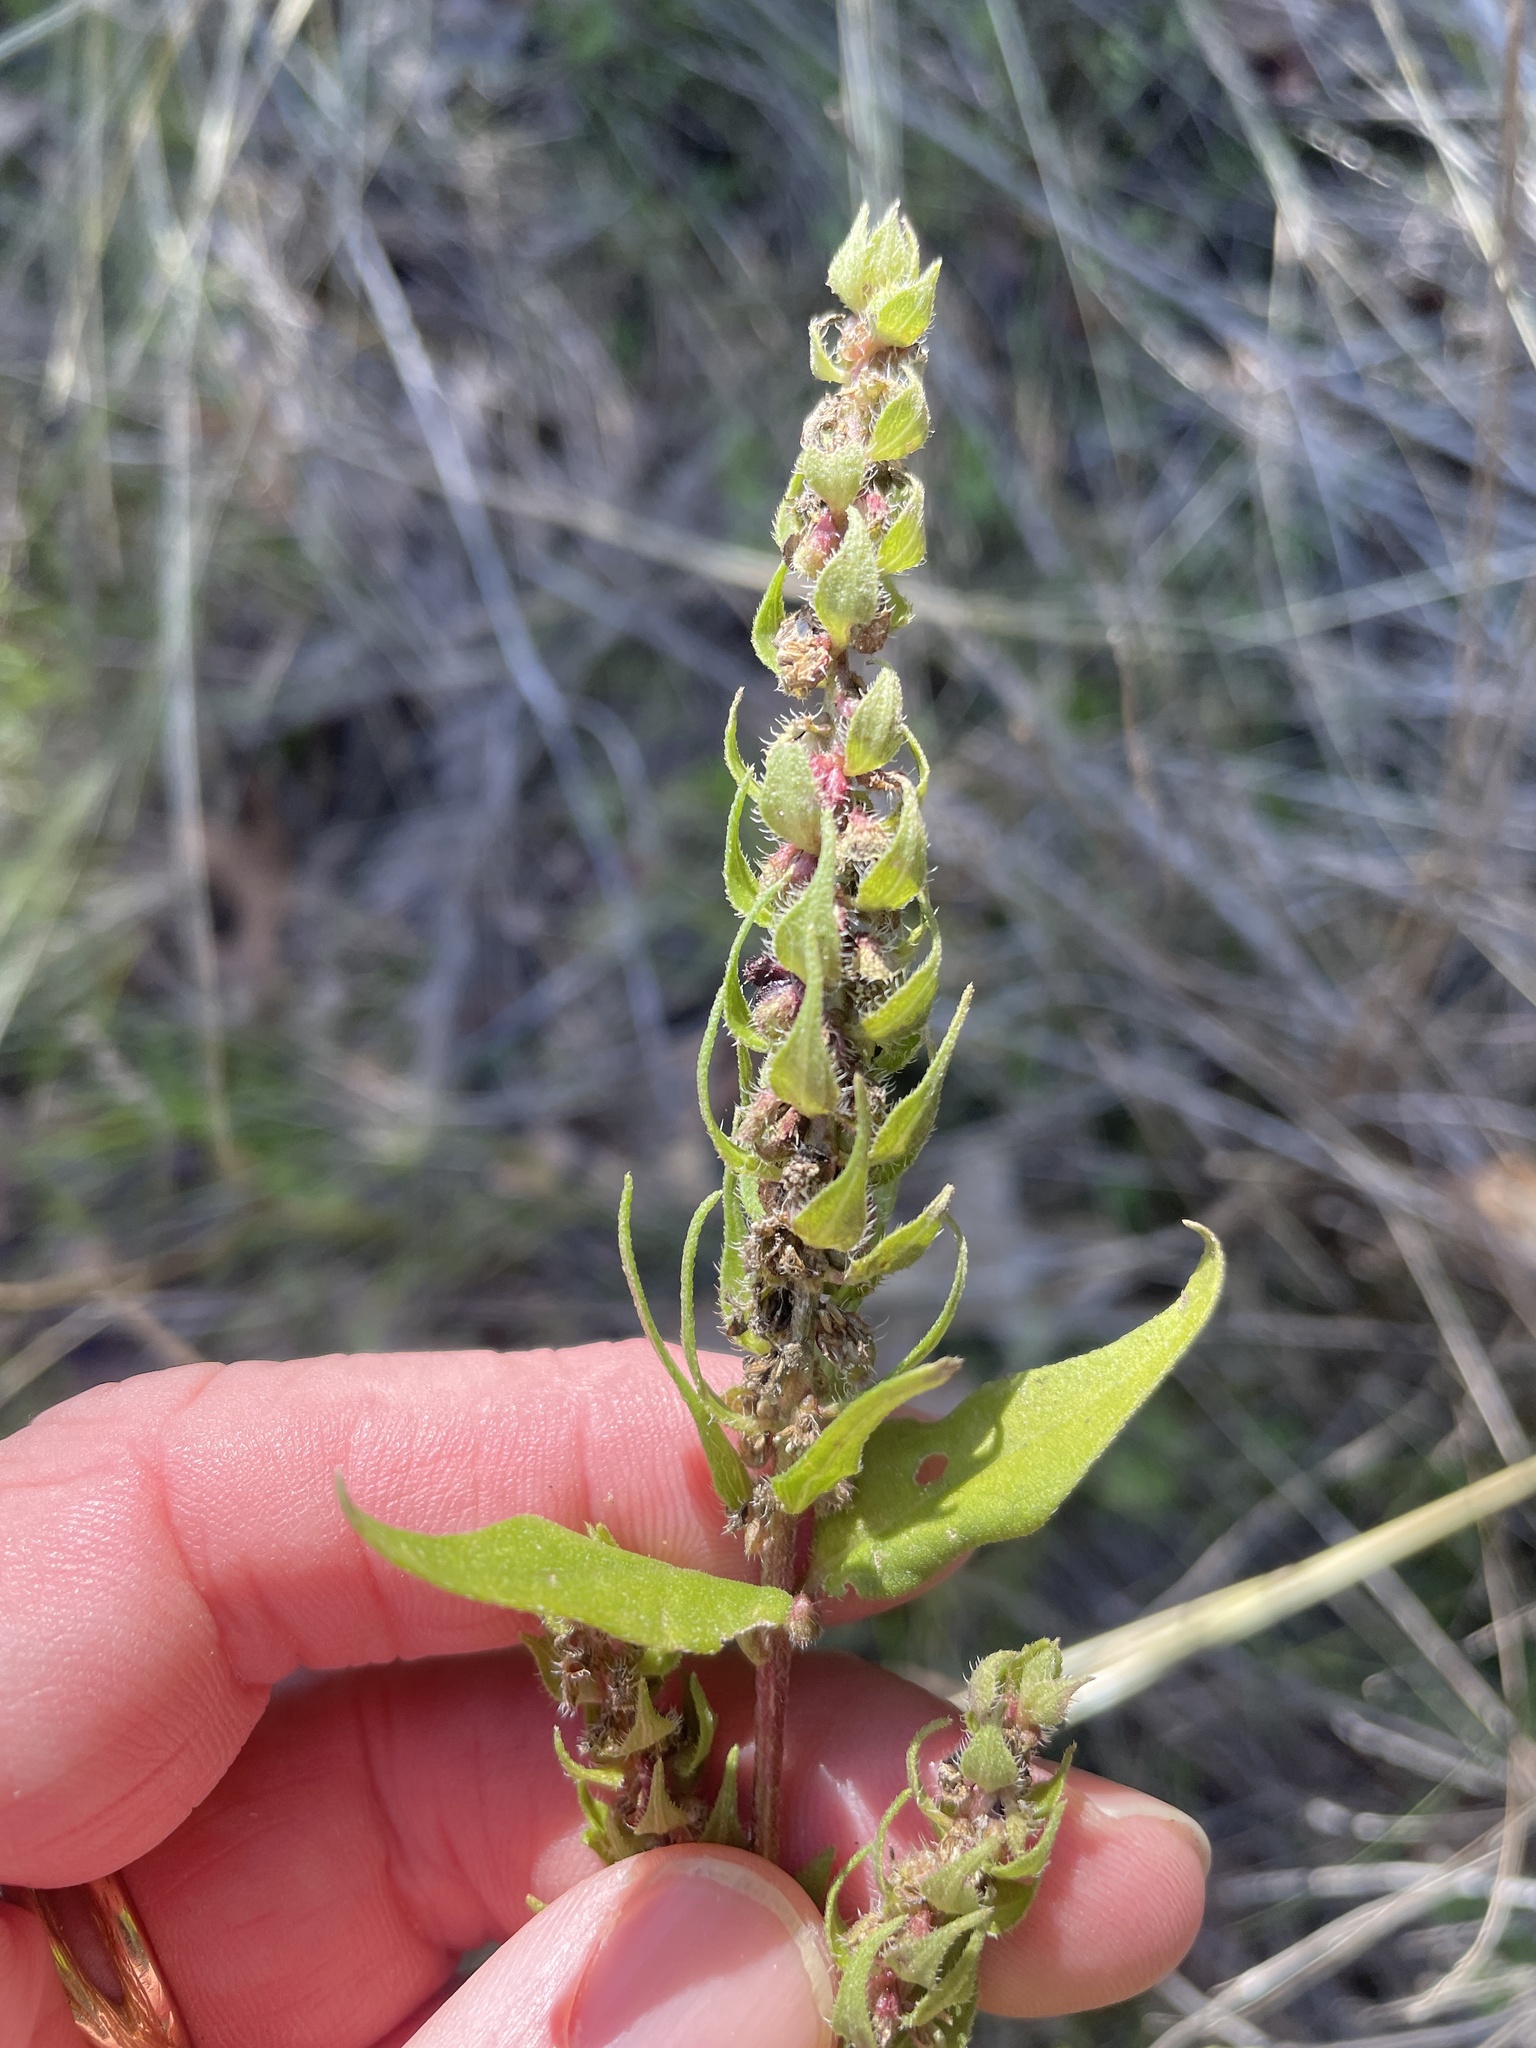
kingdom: Plantae
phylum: Tracheophyta
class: Magnoliopsida
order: Asterales
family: Asteraceae
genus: Iva
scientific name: Iva annua
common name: Marsh-elder
